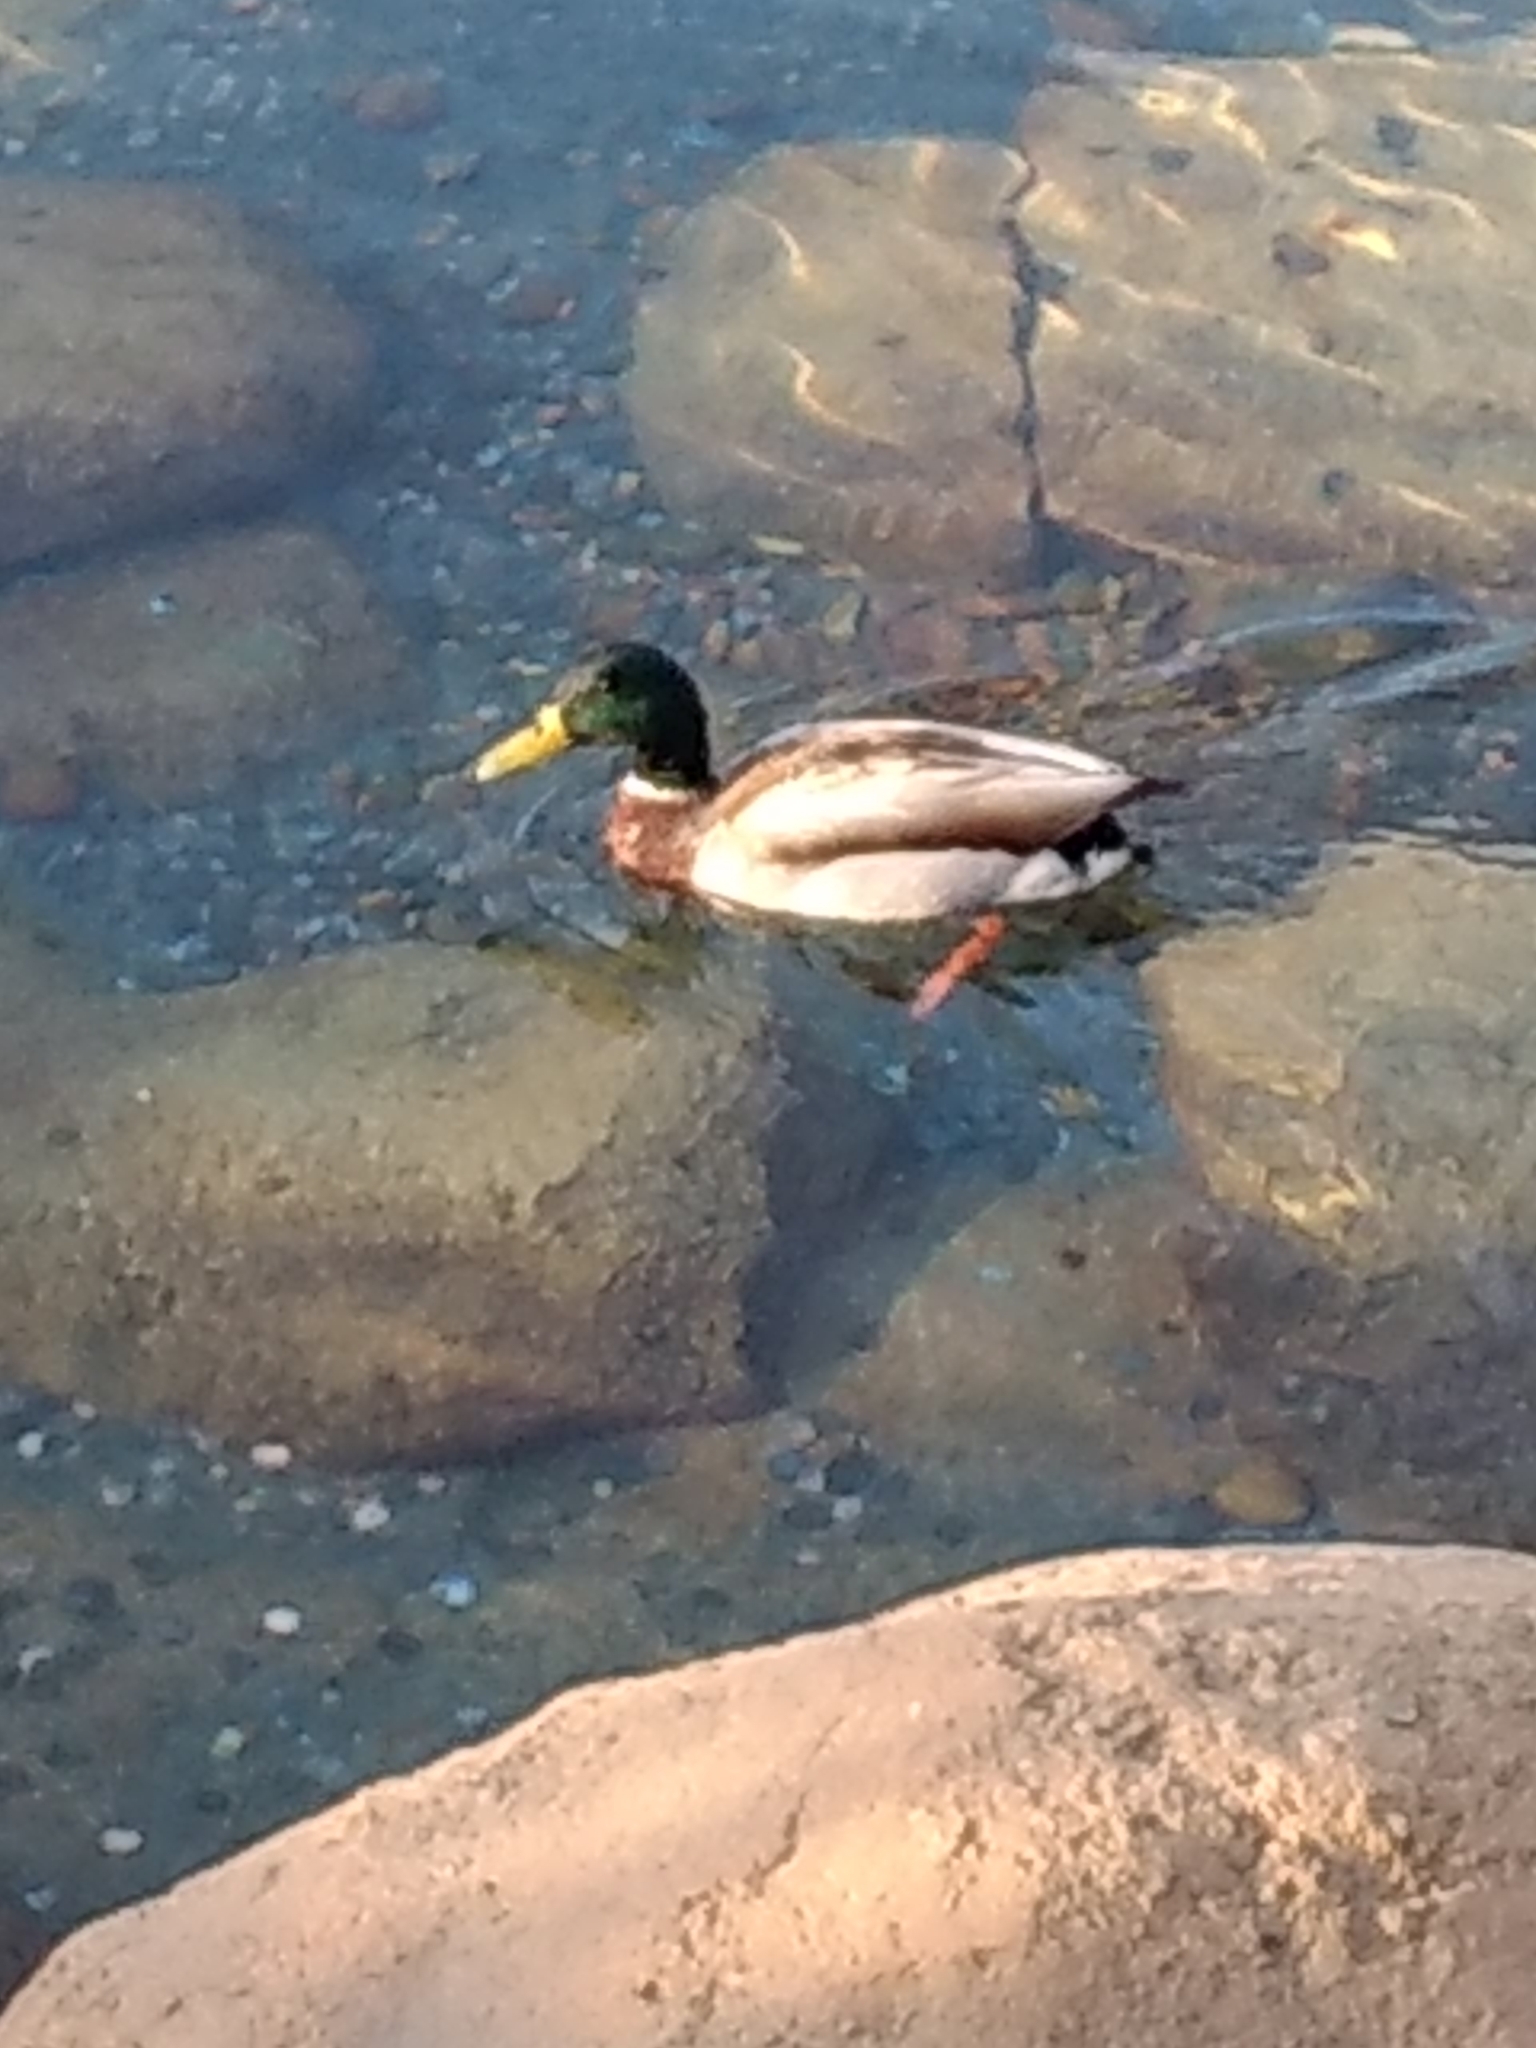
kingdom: Animalia
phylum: Chordata
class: Aves
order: Anseriformes
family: Anatidae
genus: Anas
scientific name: Anas platyrhynchos
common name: Mallard
